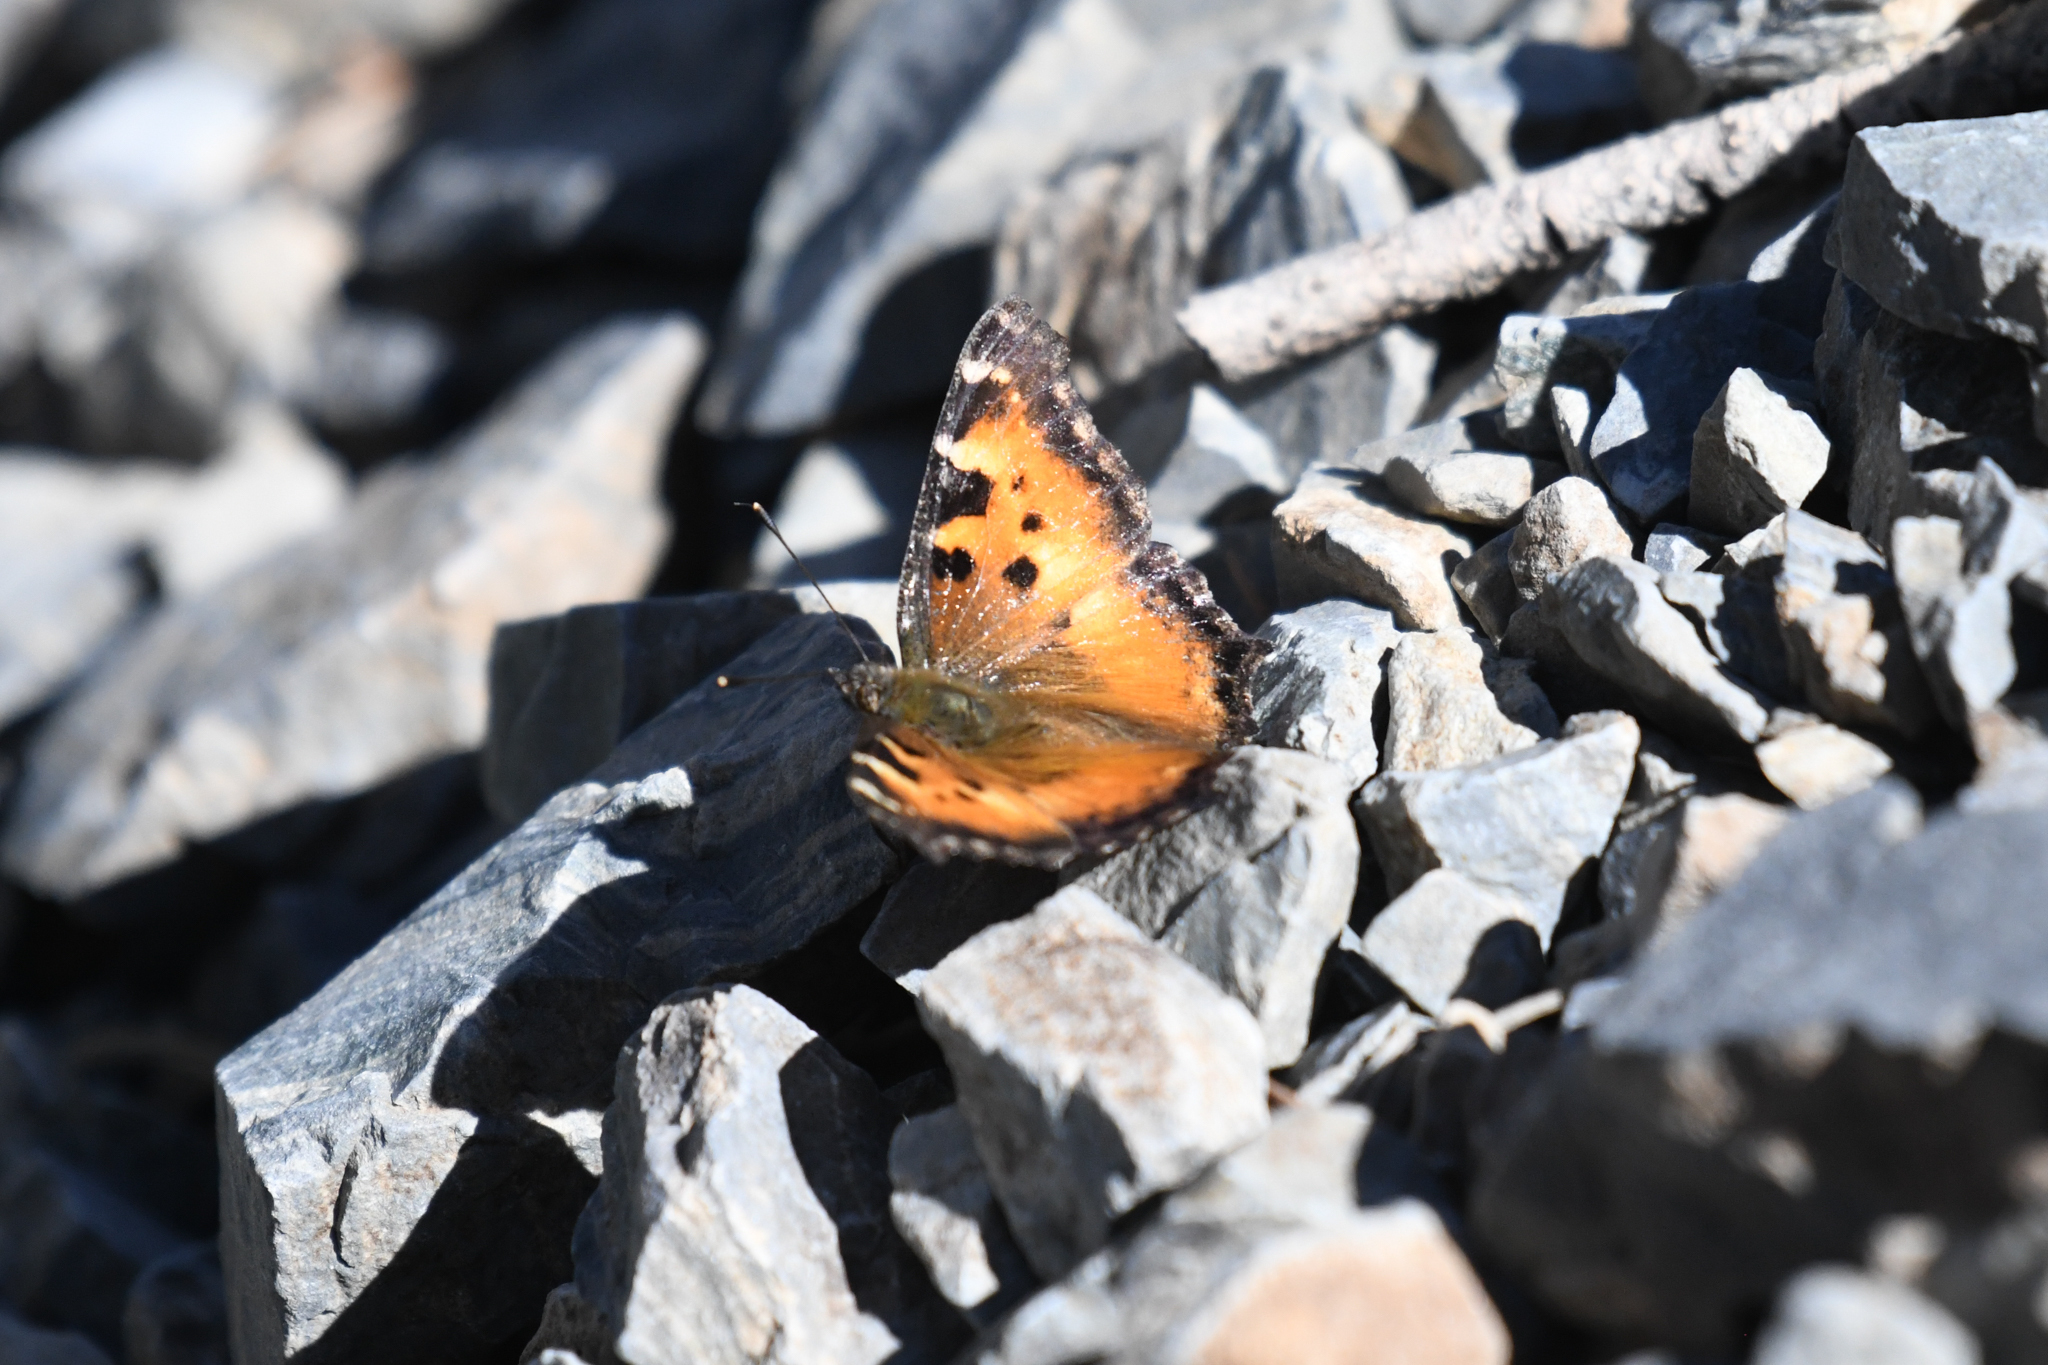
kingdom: Animalia
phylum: Arthropoda
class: Insecta
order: Lepidoptera
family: Nymphalidae
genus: Nymphalis
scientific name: Nymphalis californica
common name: California tortoiseshell
